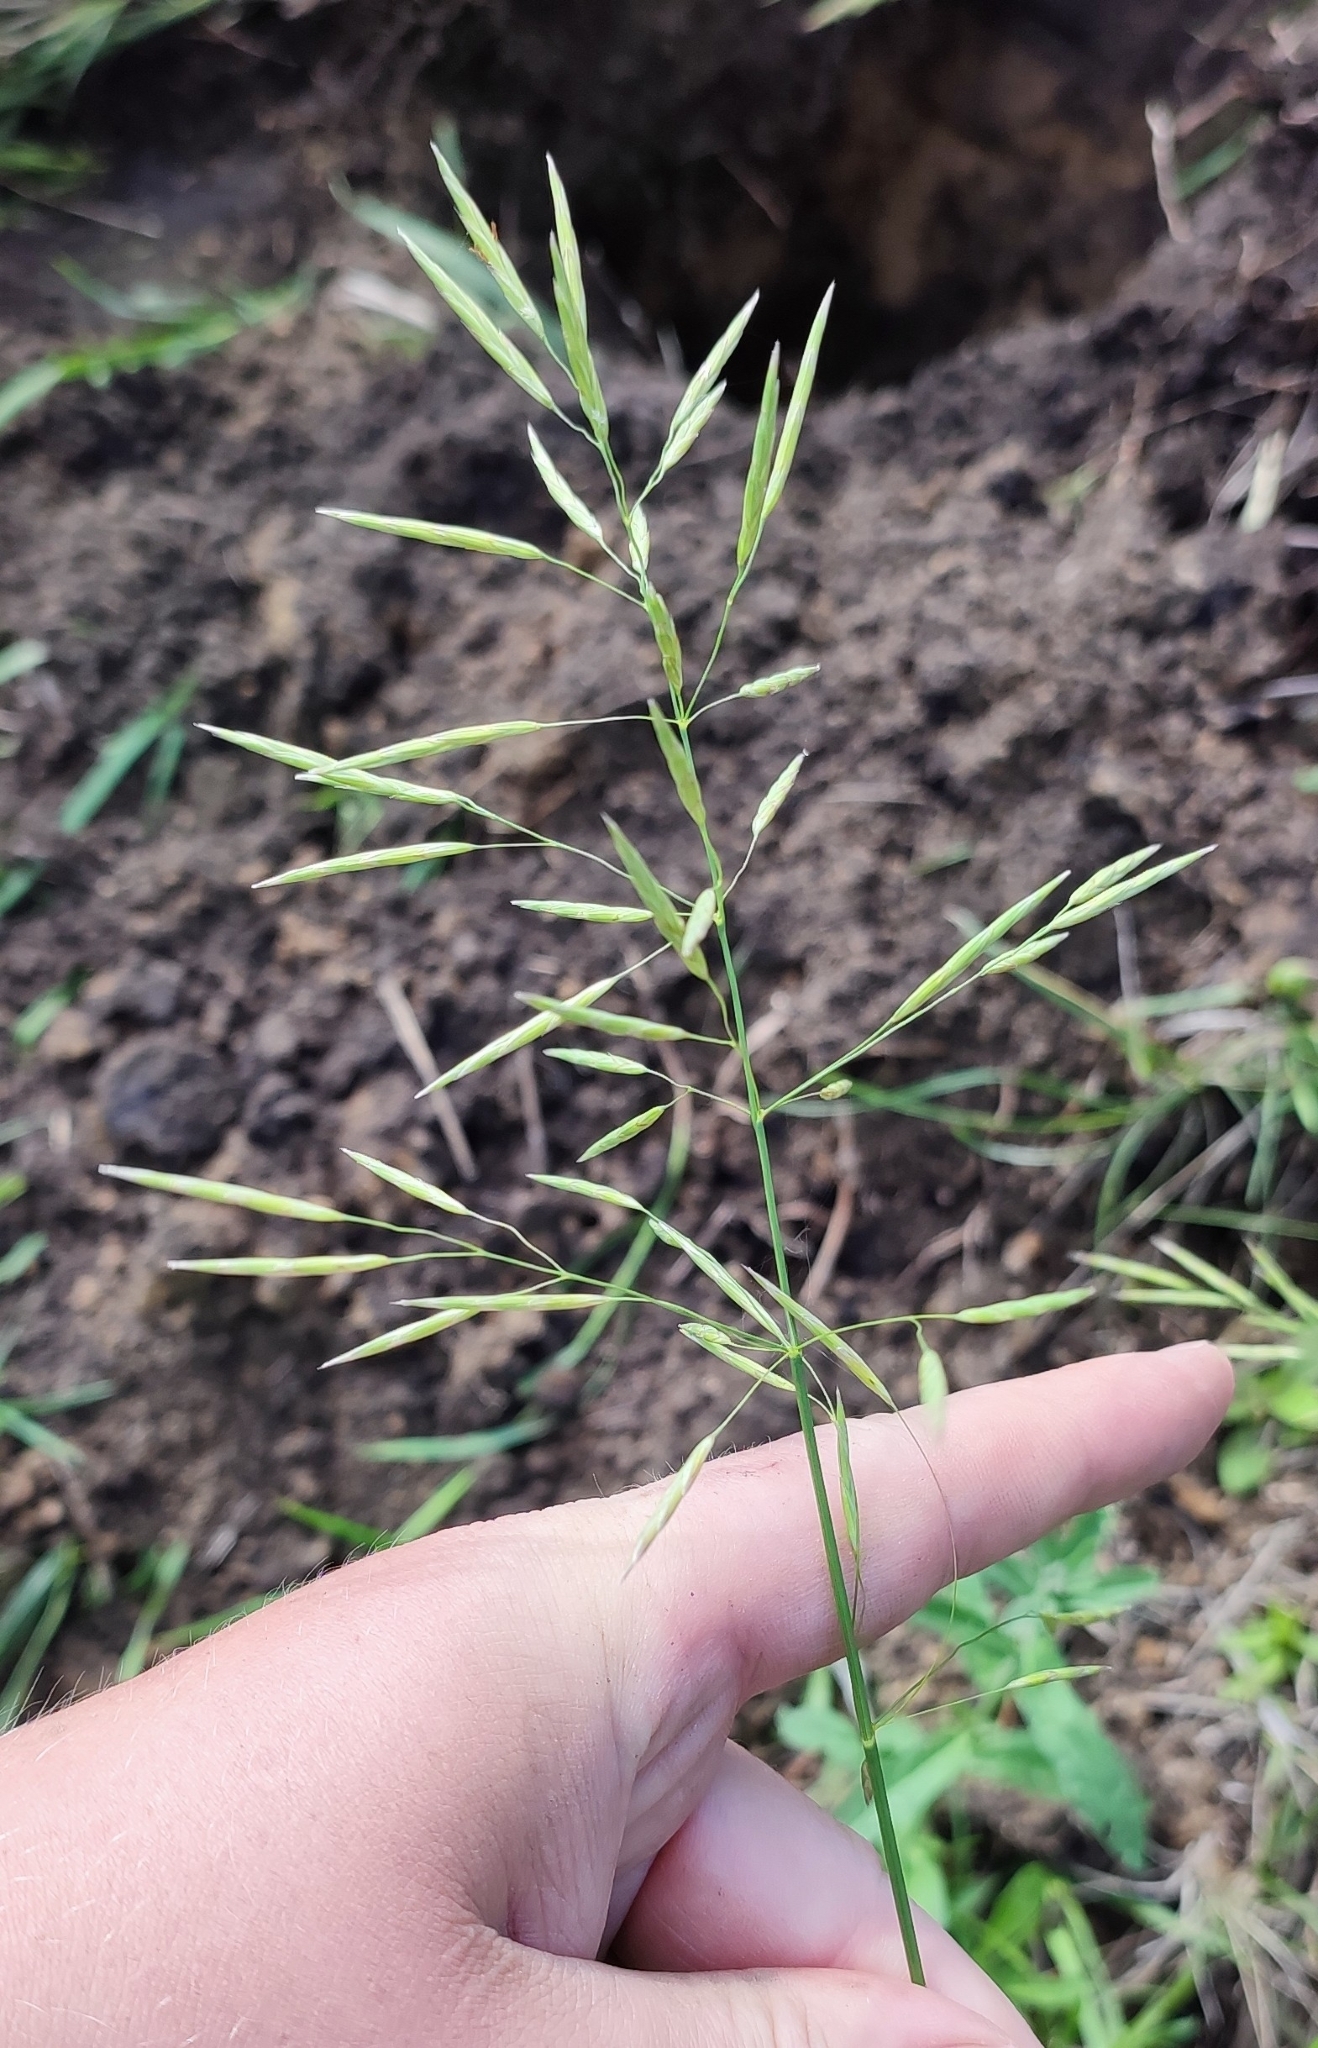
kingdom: Plantae
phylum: Tracheophyta
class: Liliopsida
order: Poales
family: Poaceae
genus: Bromus
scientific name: Bromus inermis
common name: Smooth brome
